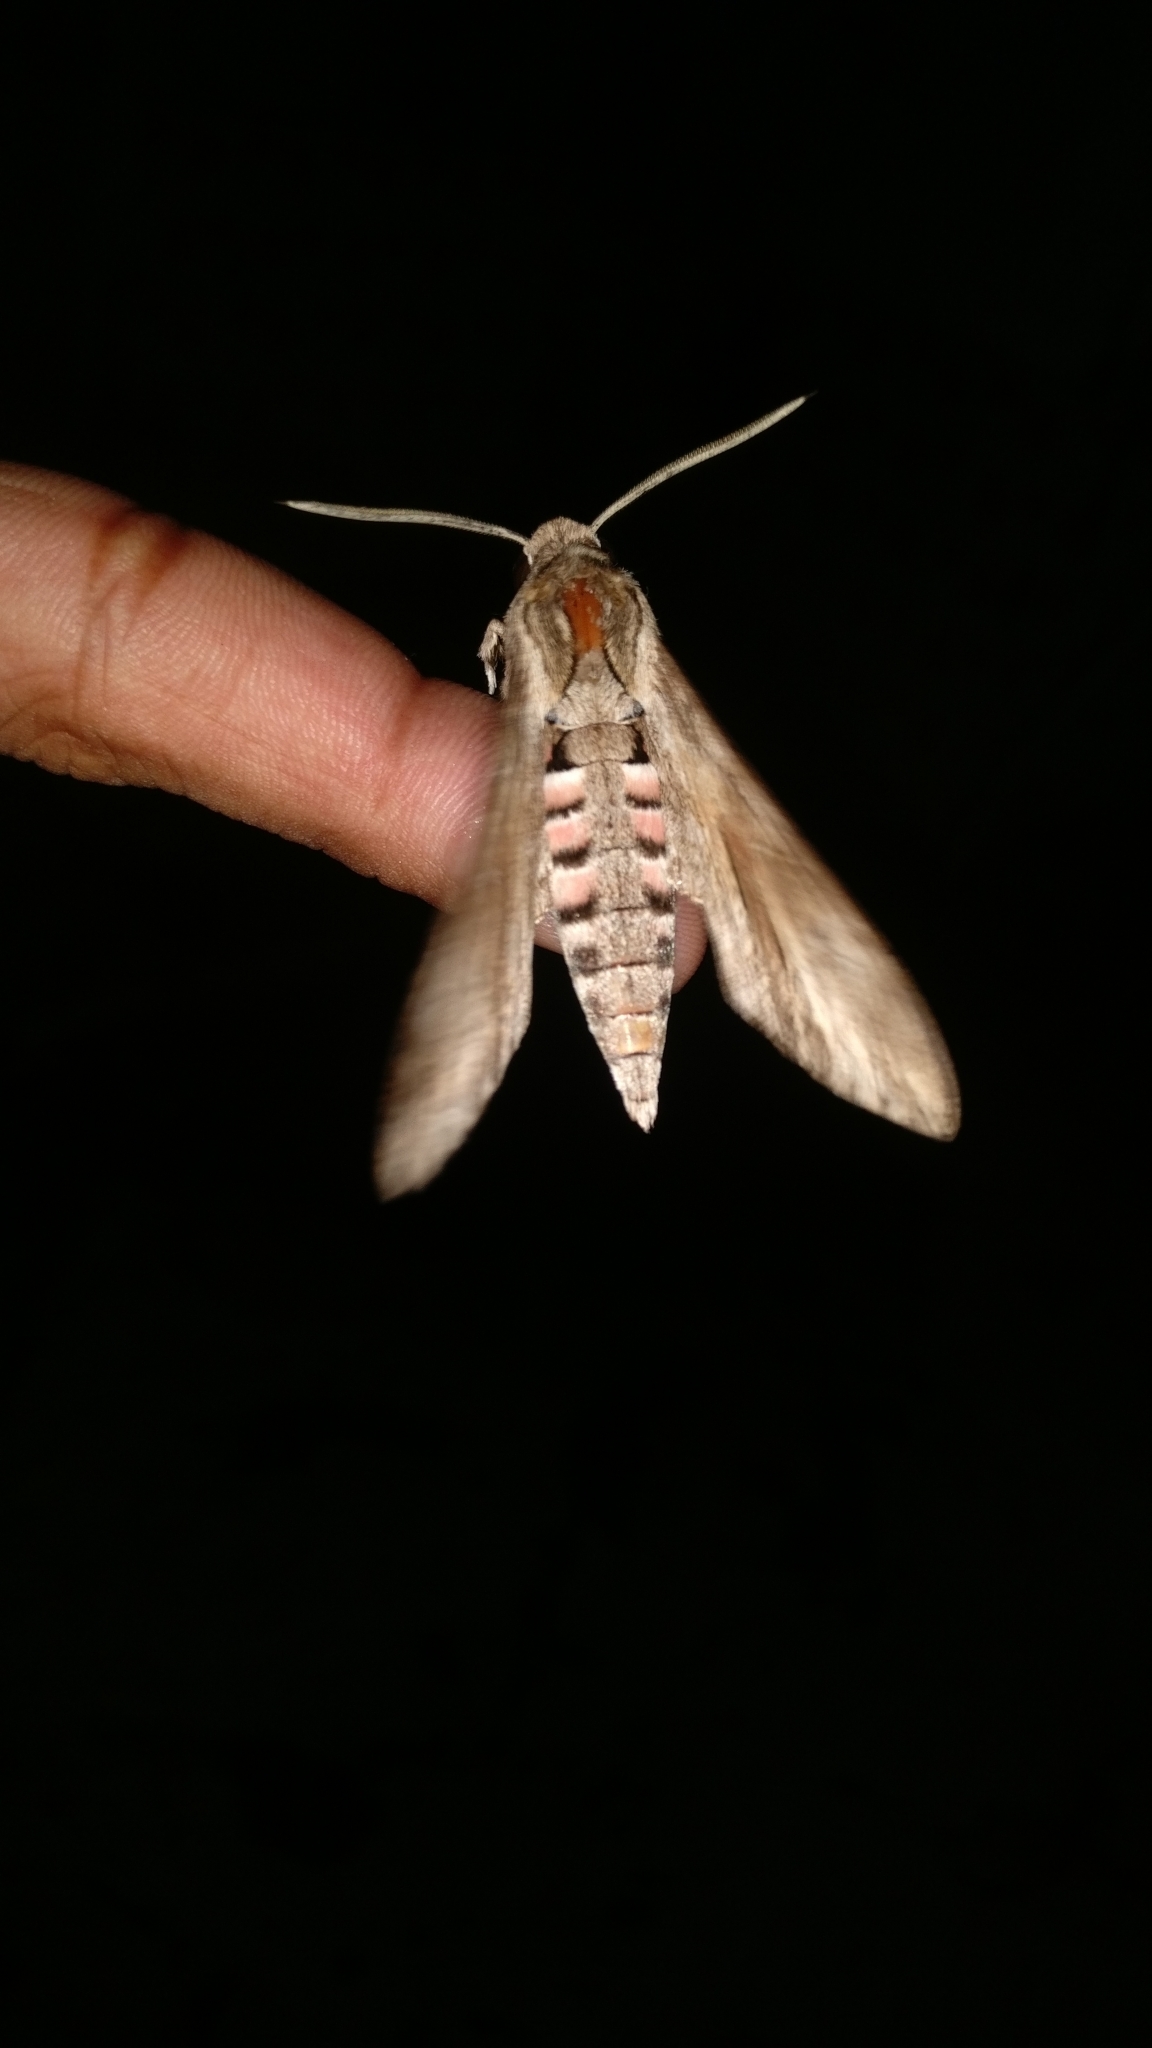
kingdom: Animalia
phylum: Arthropoda
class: Insecta
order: Lepidoptera
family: Sphingidae
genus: Agrius
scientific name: Agrius convolvuli
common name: Convolvulus hawkmoth
